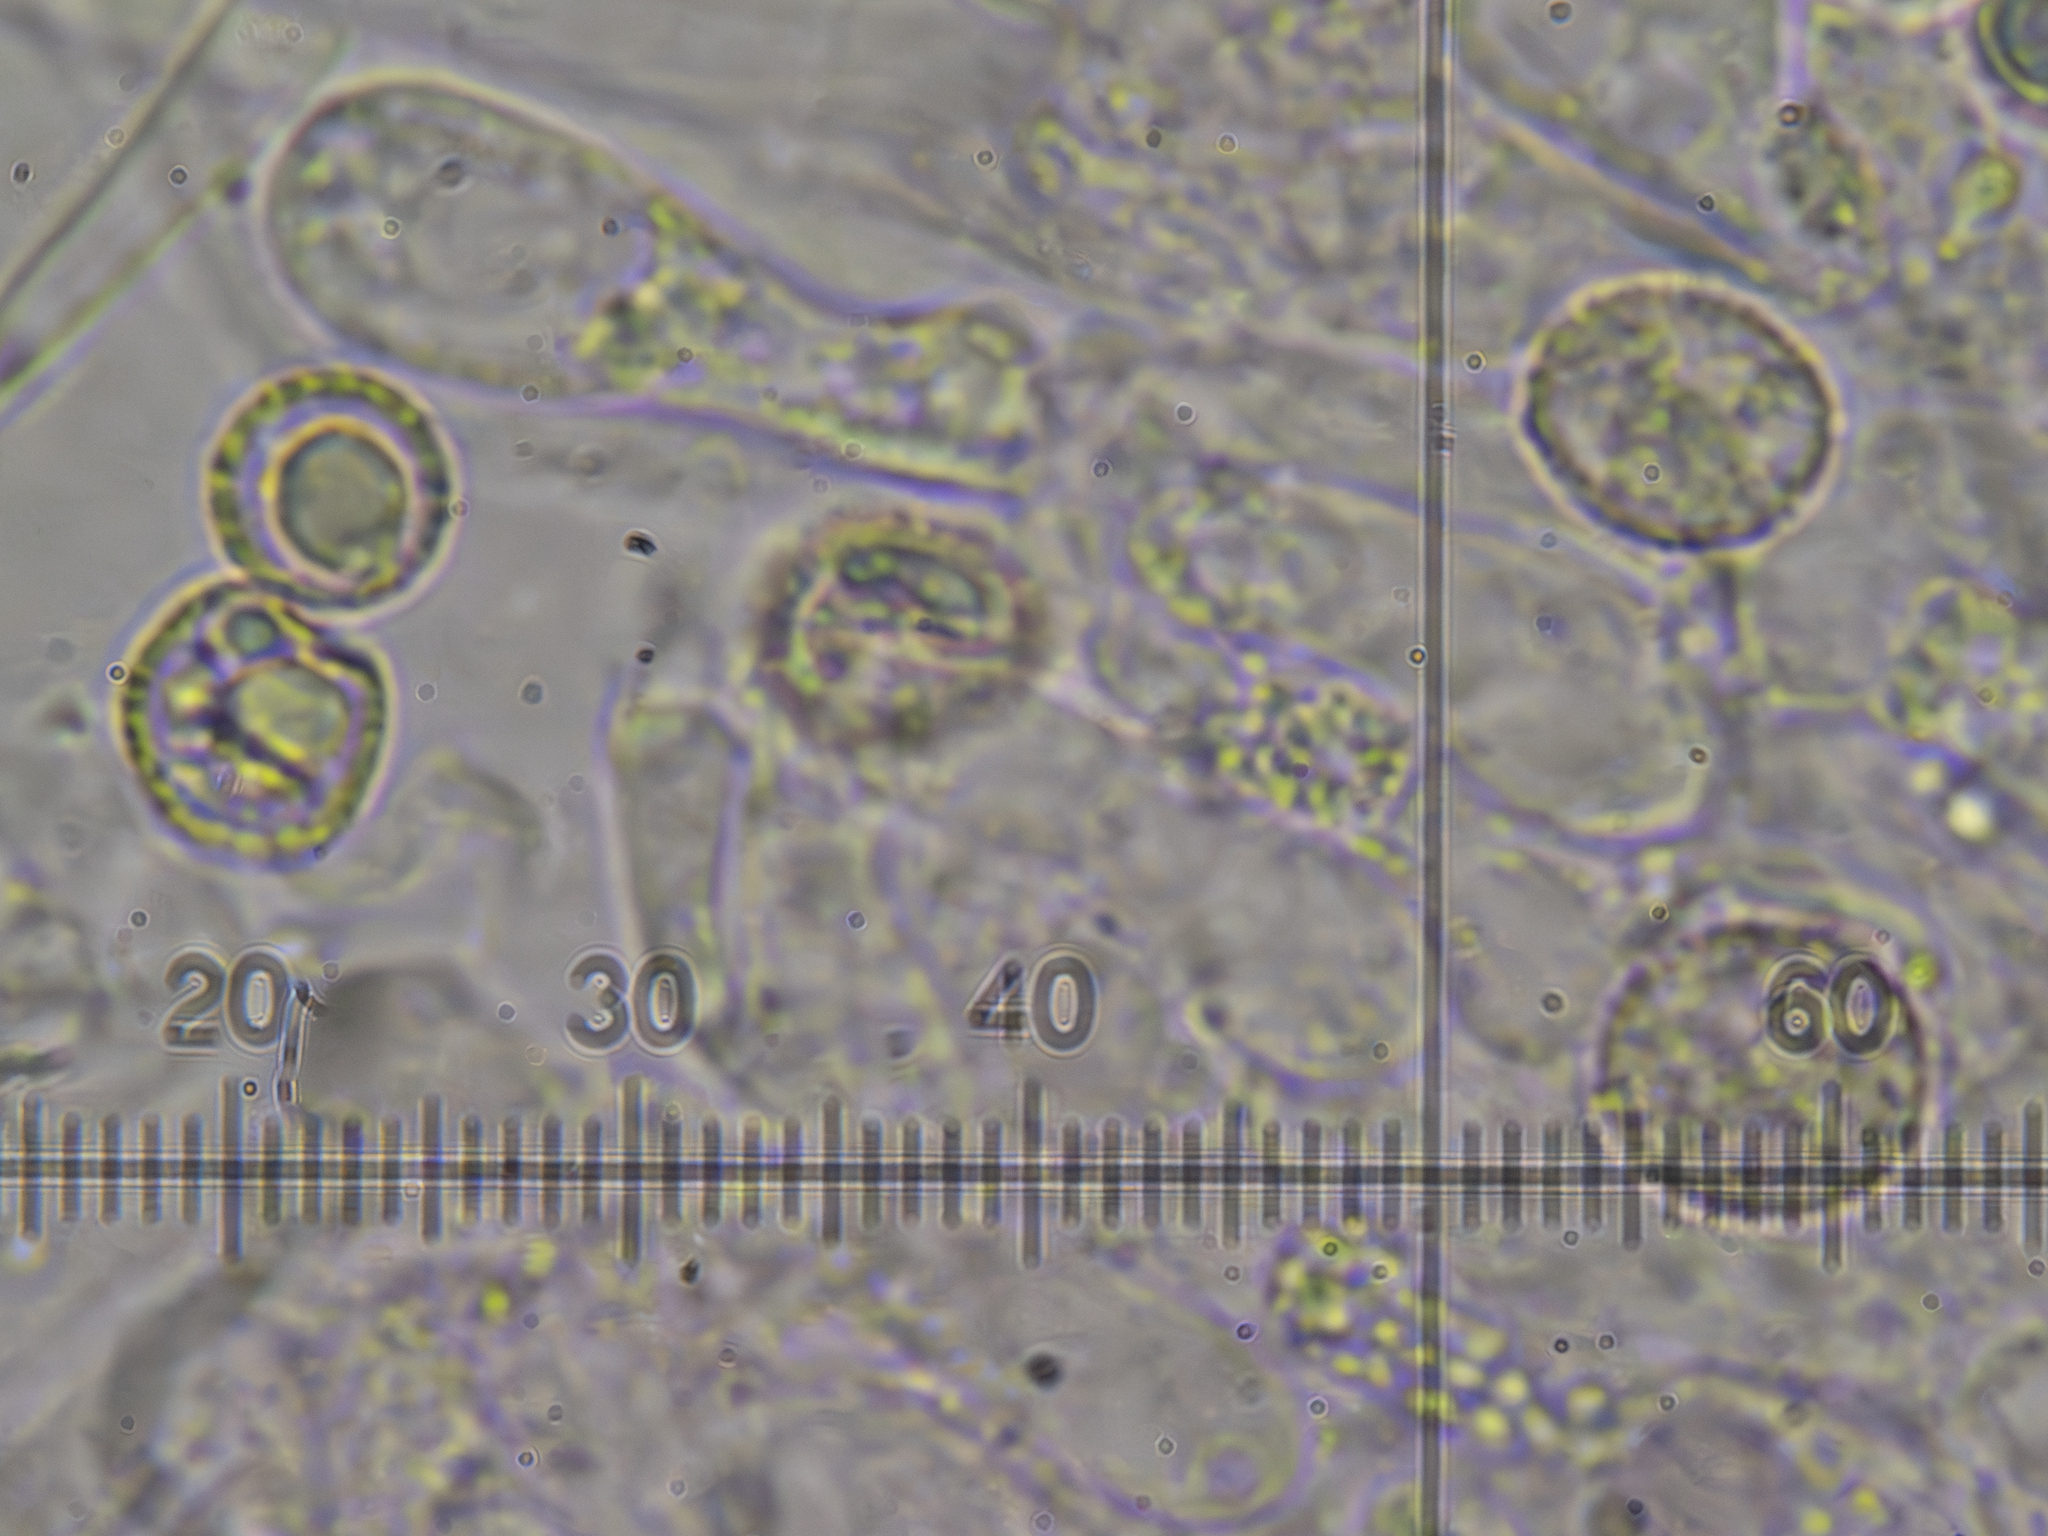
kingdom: Fungi
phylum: Basidiomycota
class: Agaricomycetes
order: Agaricales
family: Crepidotaceae
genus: Crepidotus
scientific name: Crepidotus cesatii
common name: Roundspored oysterling
